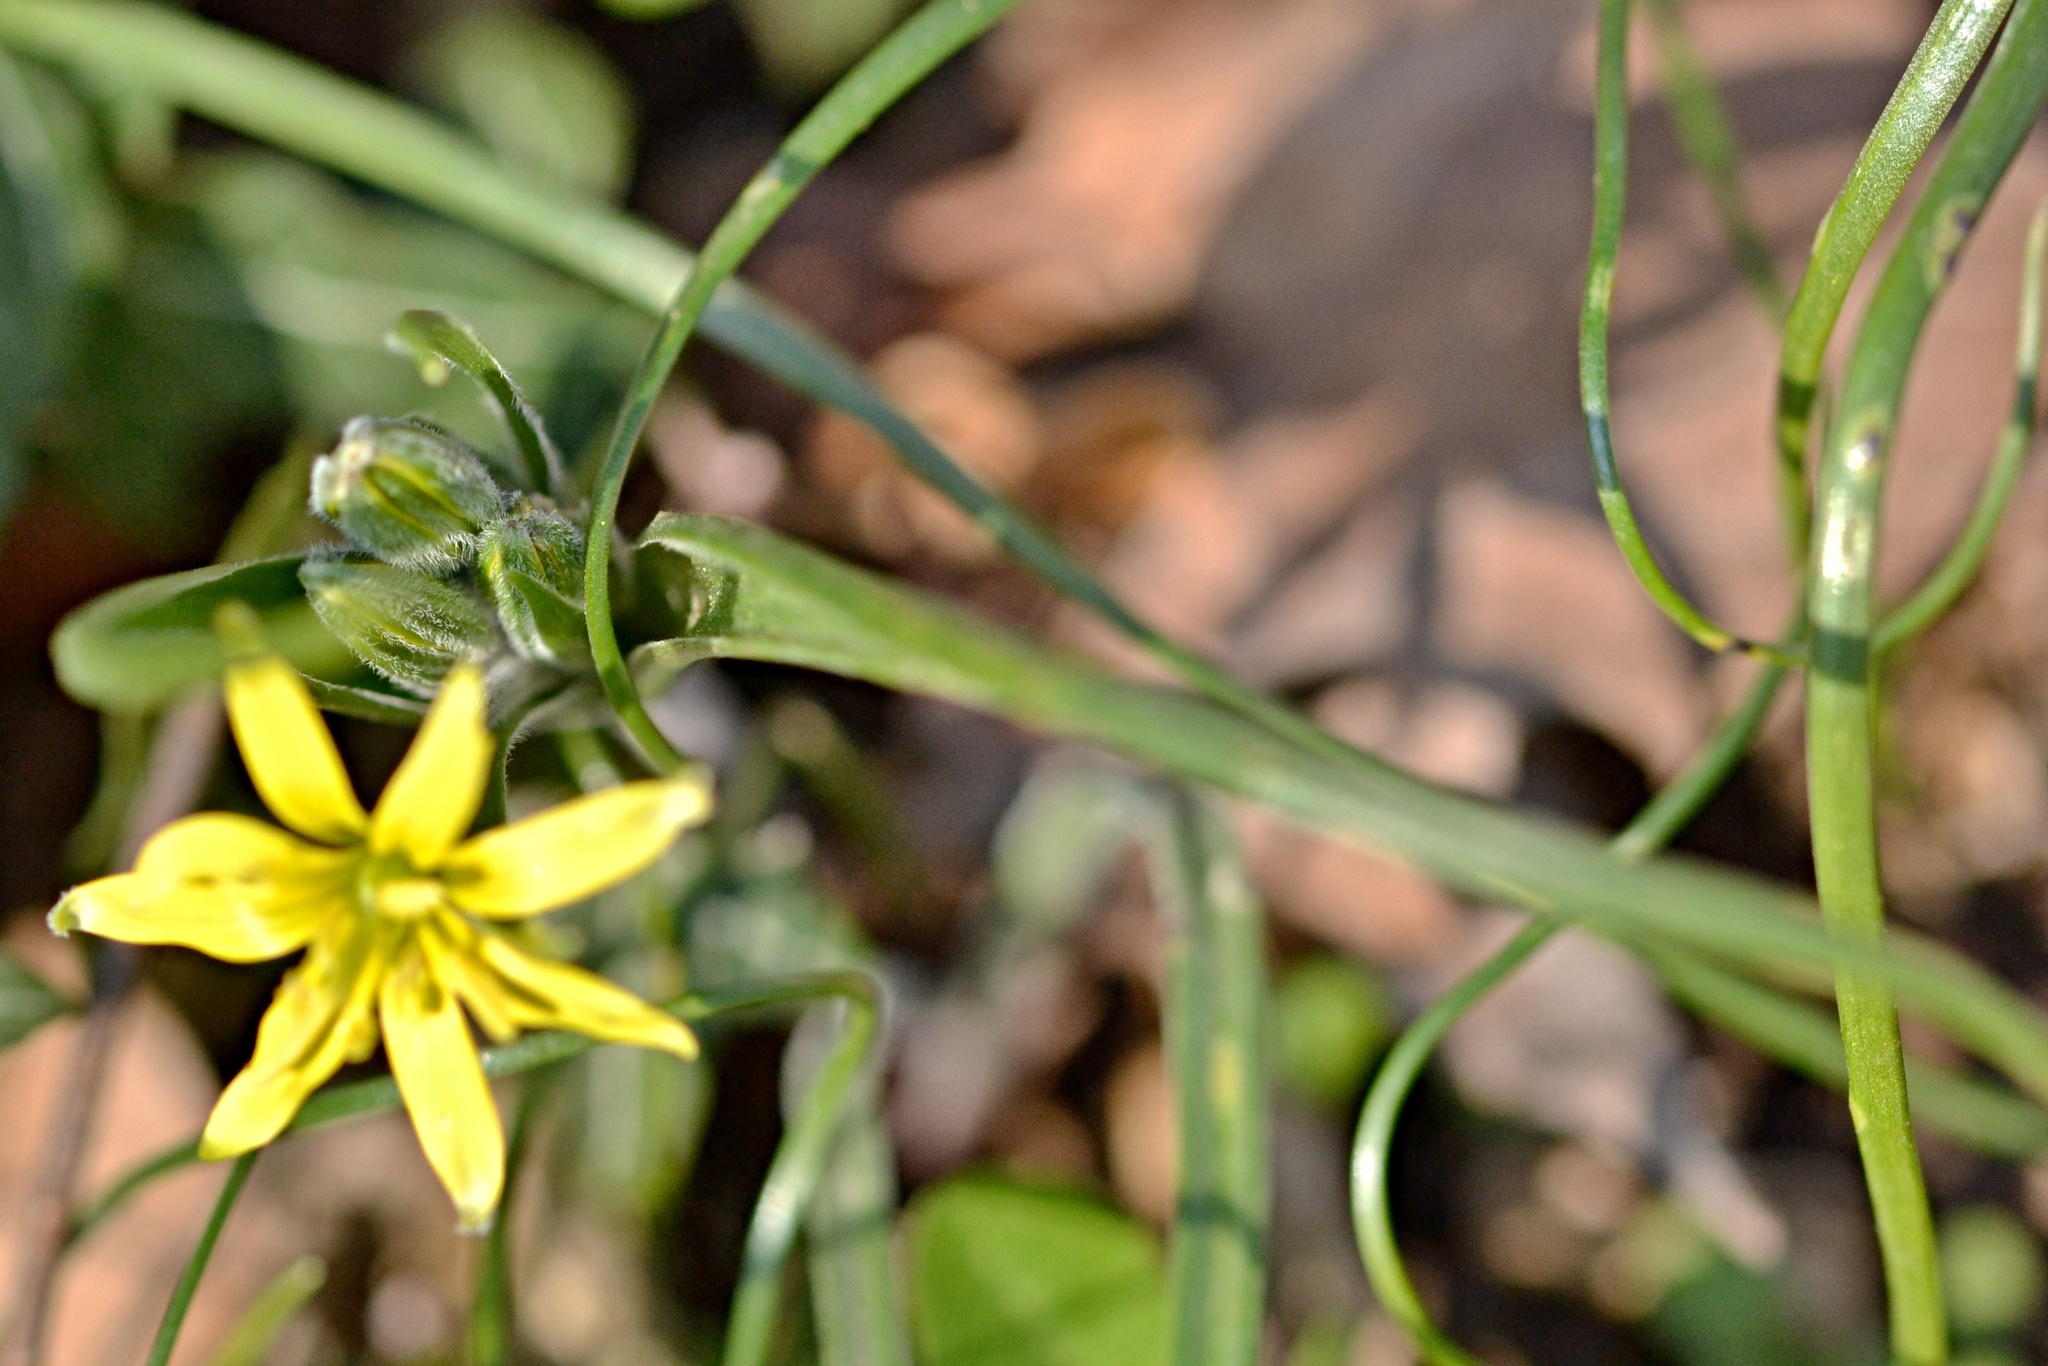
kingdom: Plantae
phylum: Tracheophyta
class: Liliopsida
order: Liliales
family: Liliaceae
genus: Gagea
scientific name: Gagea villosa
